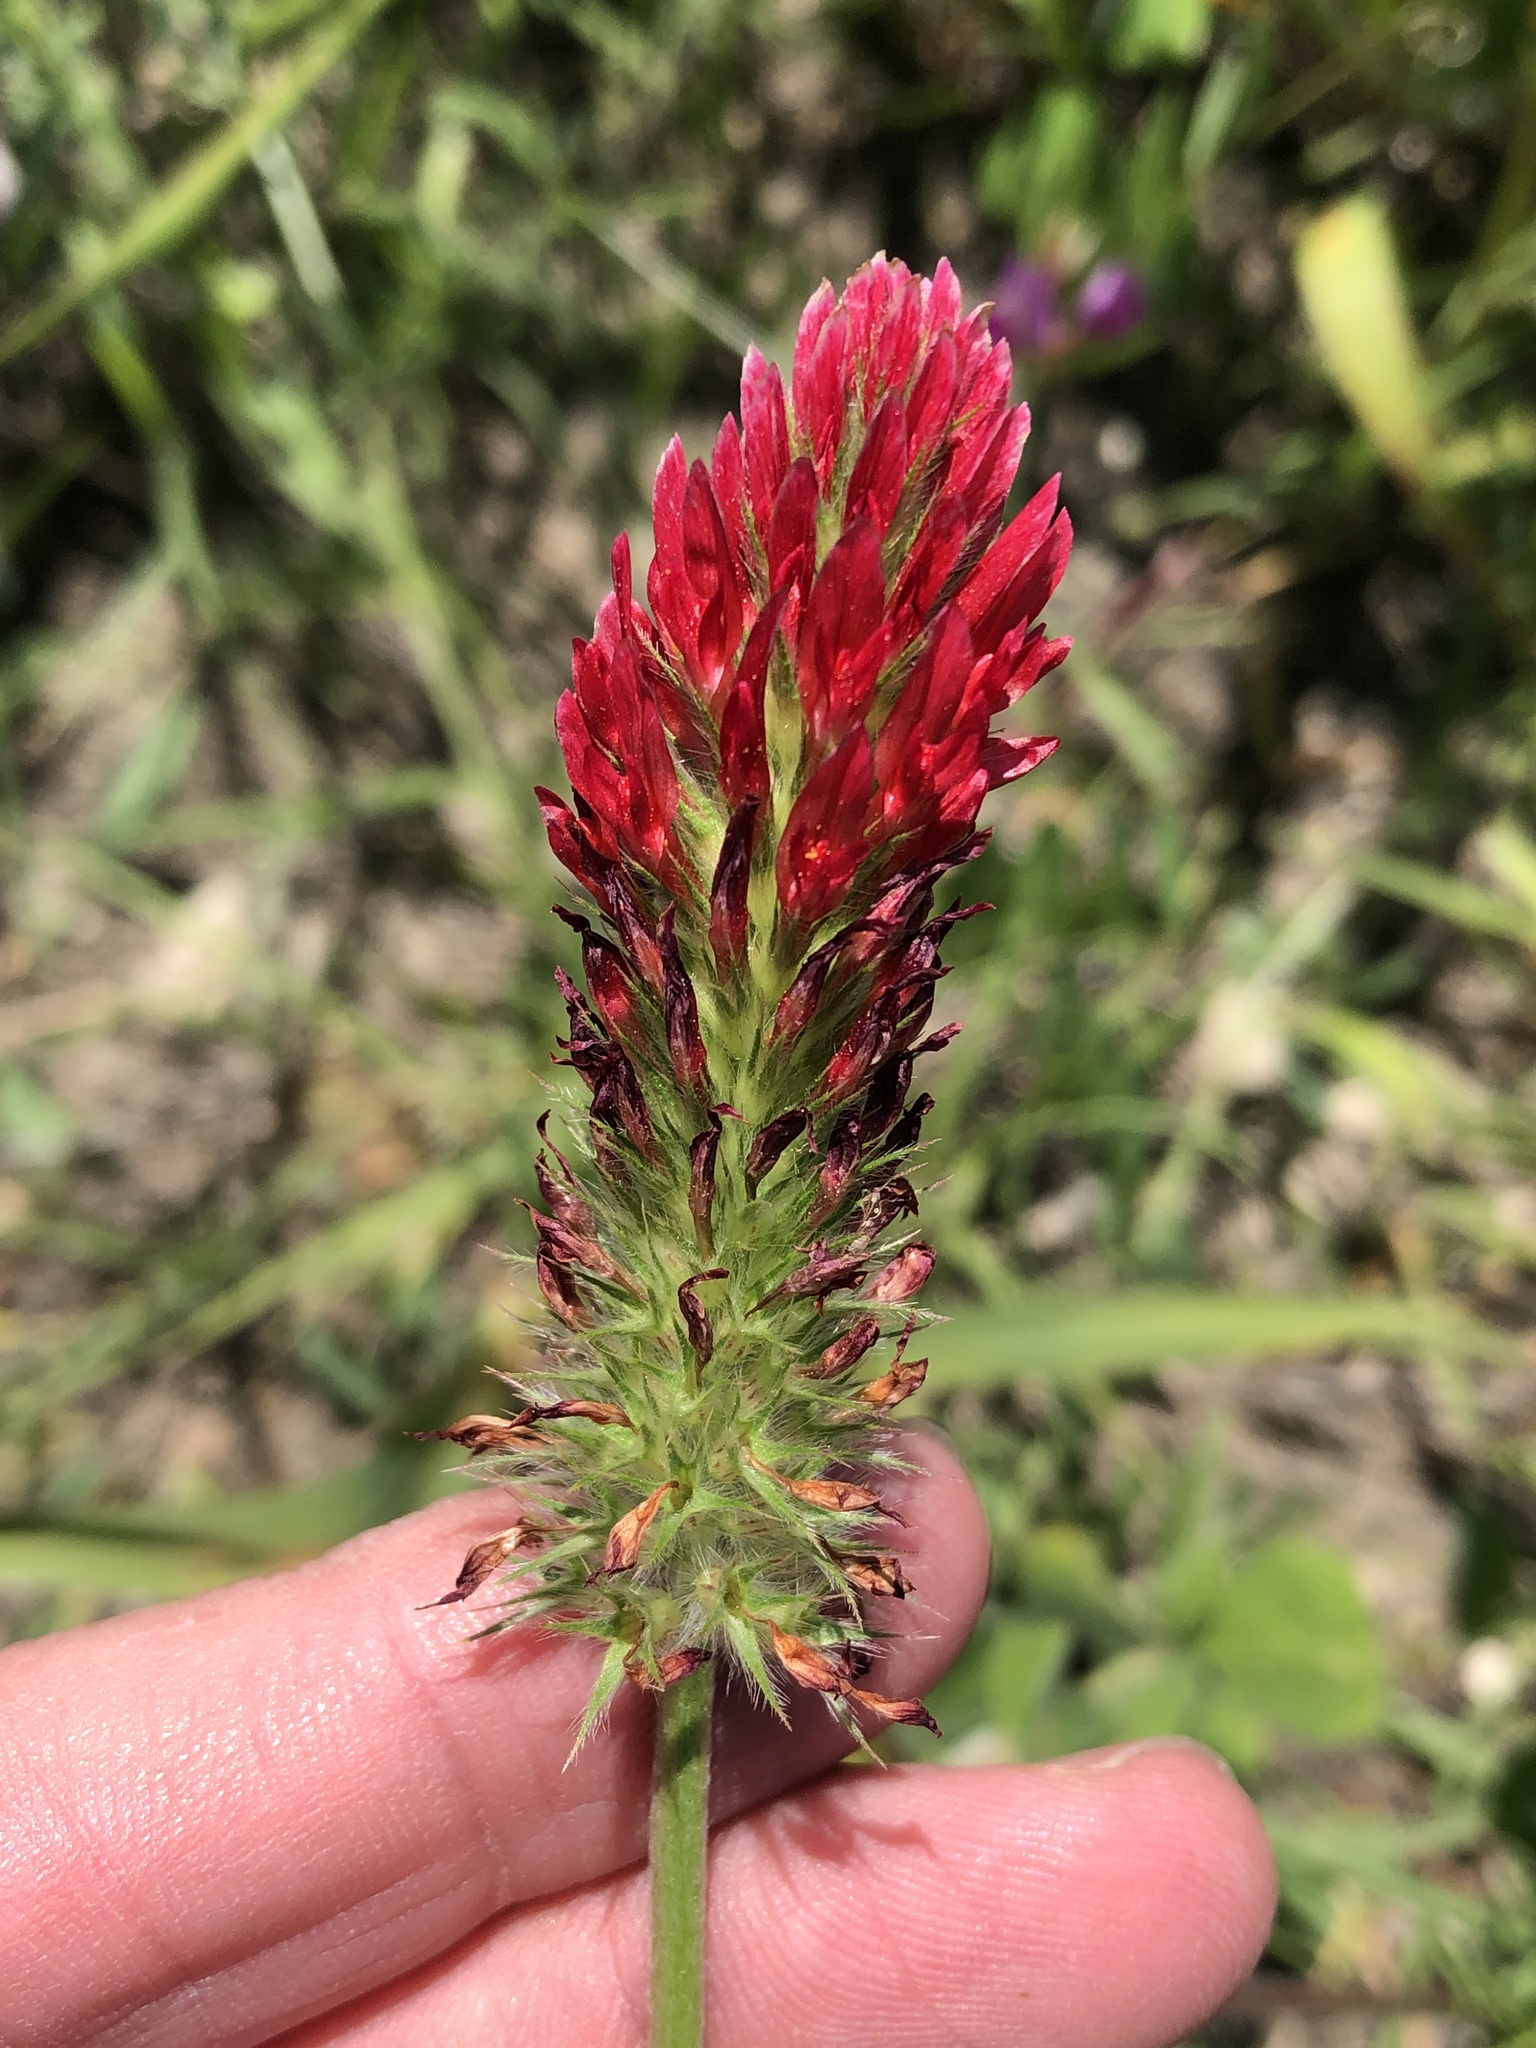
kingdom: Plantae
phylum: Tracheophyta
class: Magnoliopsida
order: Fabales
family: Fabaceae
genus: Trifolium
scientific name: Trifolium incarnatum
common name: Crimson clover
